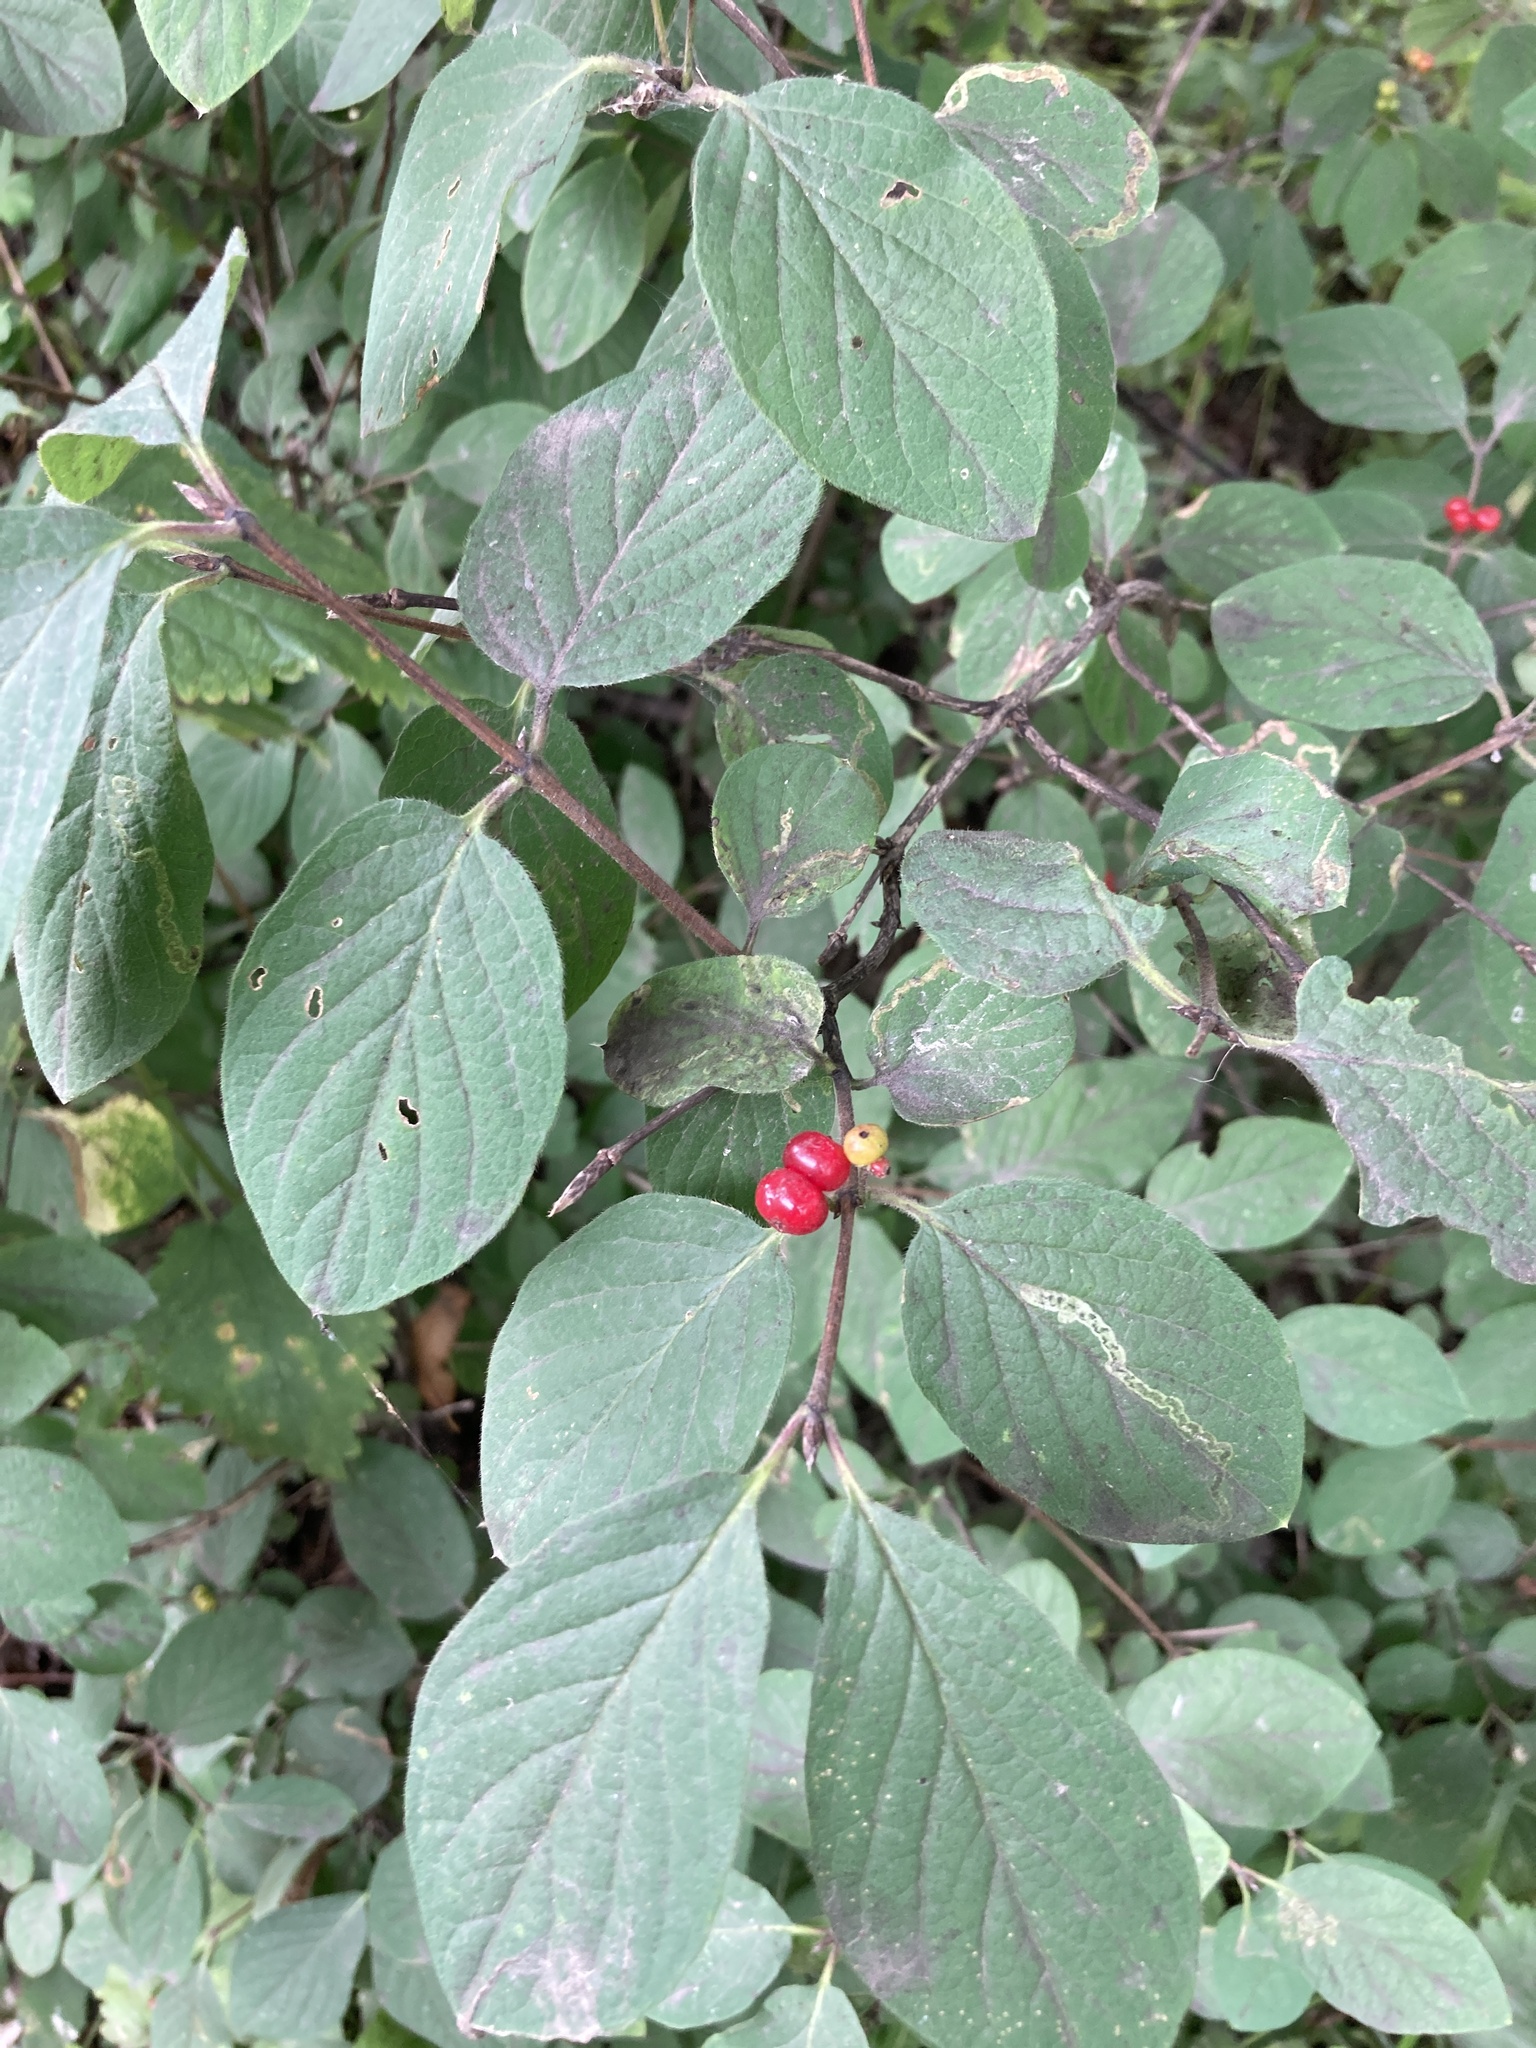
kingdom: Plantae
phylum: Tracheophyta
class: Magnoliopsida
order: Dipsacales
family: Caprifoliaceae
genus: Lonicera
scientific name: Lonicera xylosteum
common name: Fly honeysuckle
